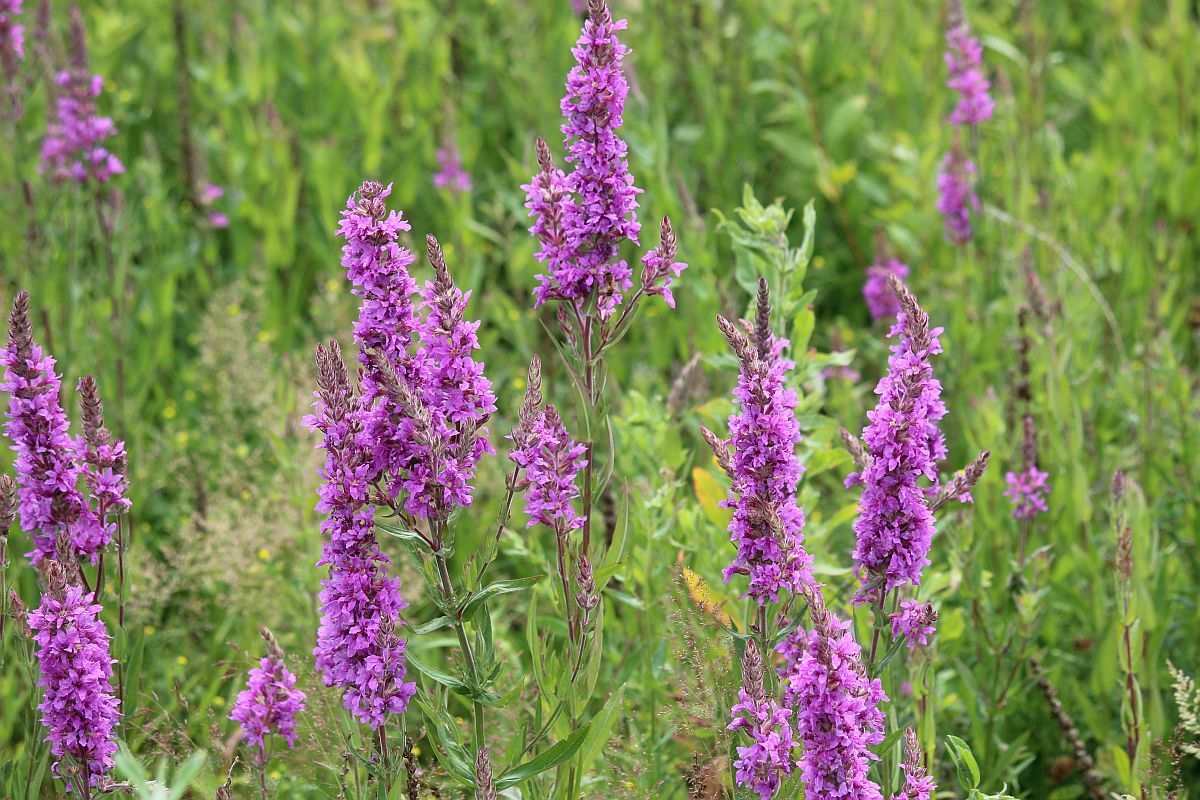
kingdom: Plantae
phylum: Tracheophyta
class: Magnoliopsida
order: Myrtales
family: Lythraceae
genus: Lythrum
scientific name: Lythrum salicaria
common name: Purple loosestrife
